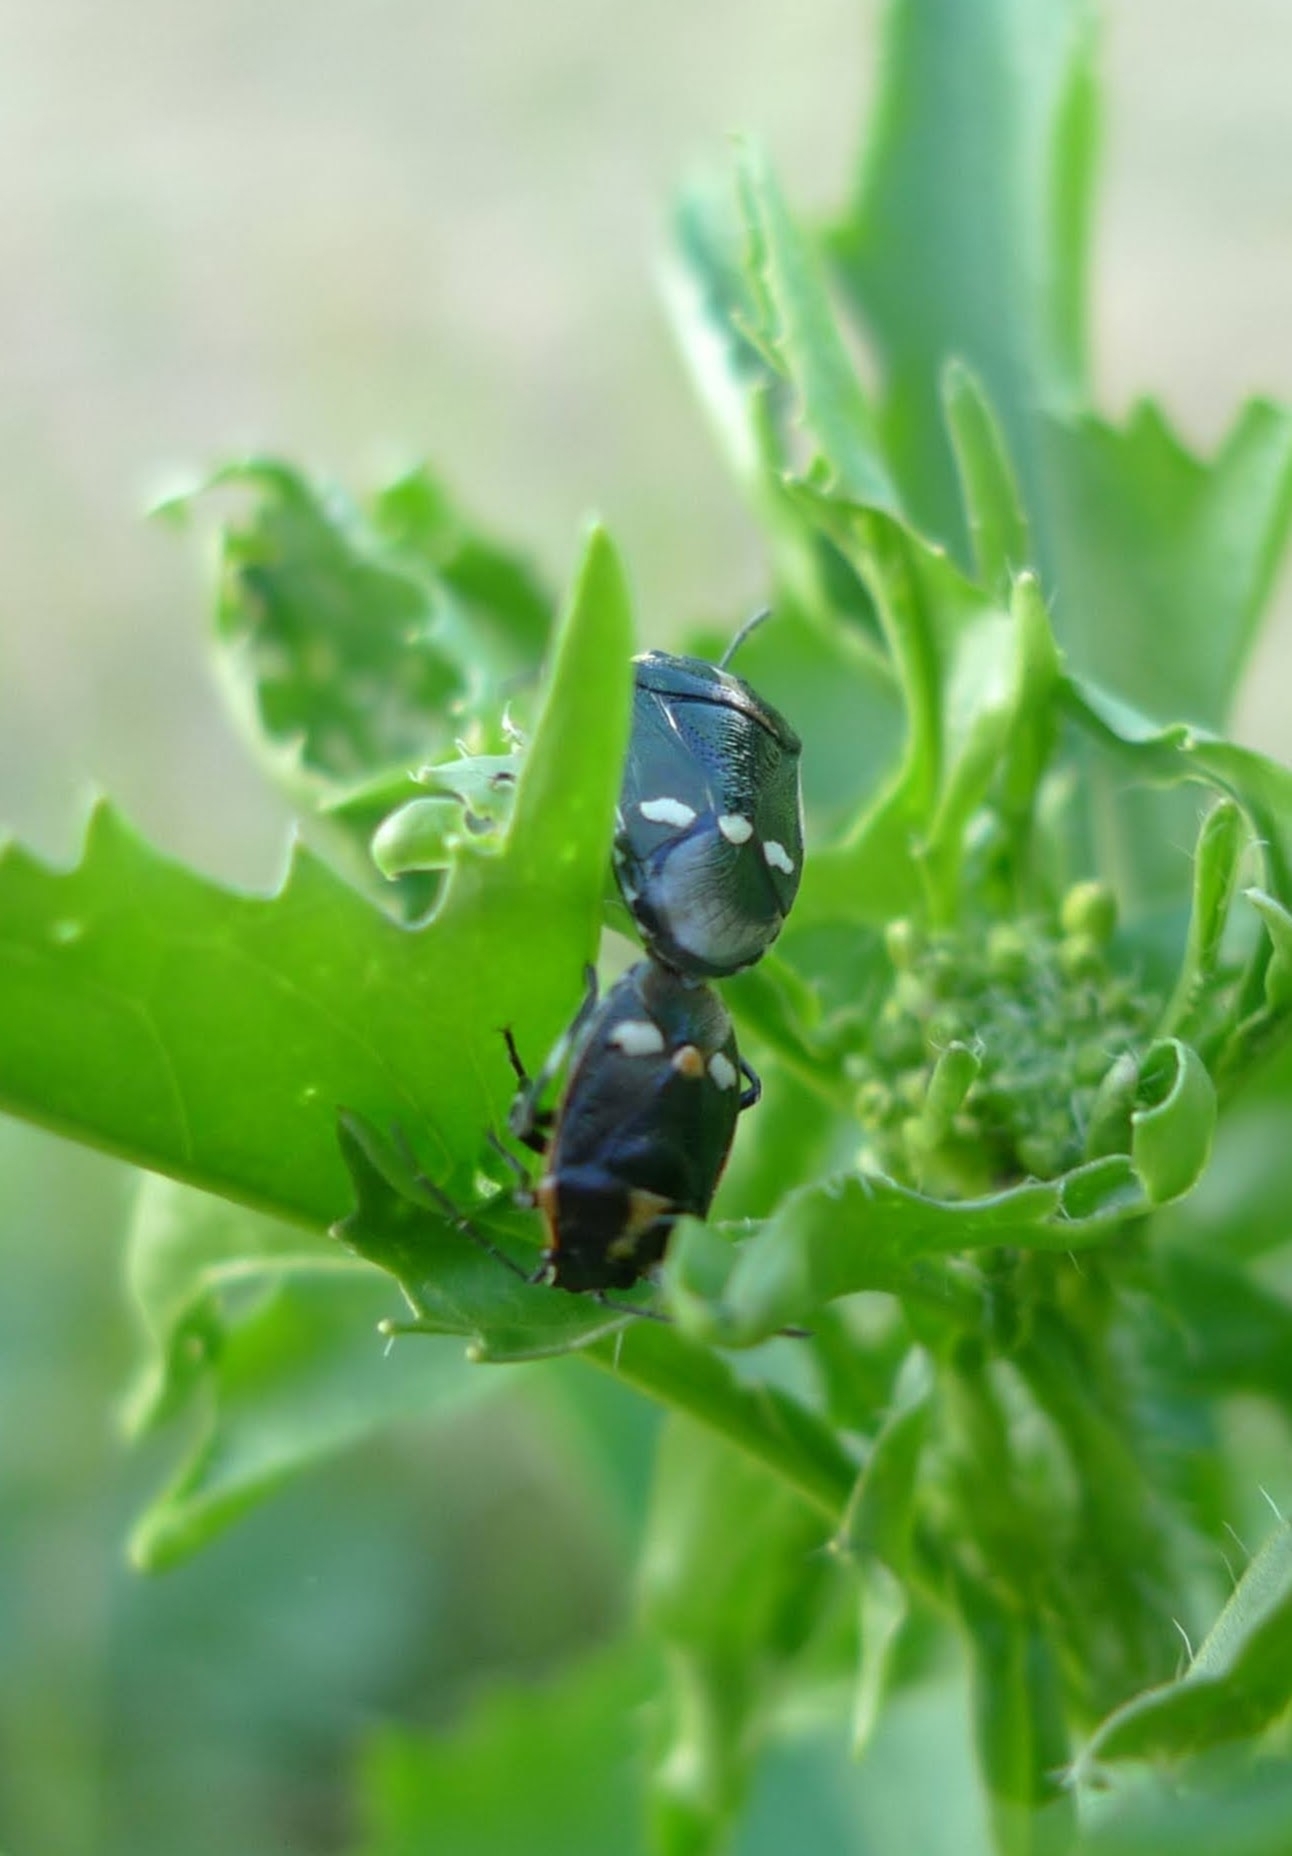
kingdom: Animalia
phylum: Arthropoda
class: Insecta
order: Hemiptera
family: Pentatomidae
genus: Eurydema
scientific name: Eurydema oleracea
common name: Cabbage bug
